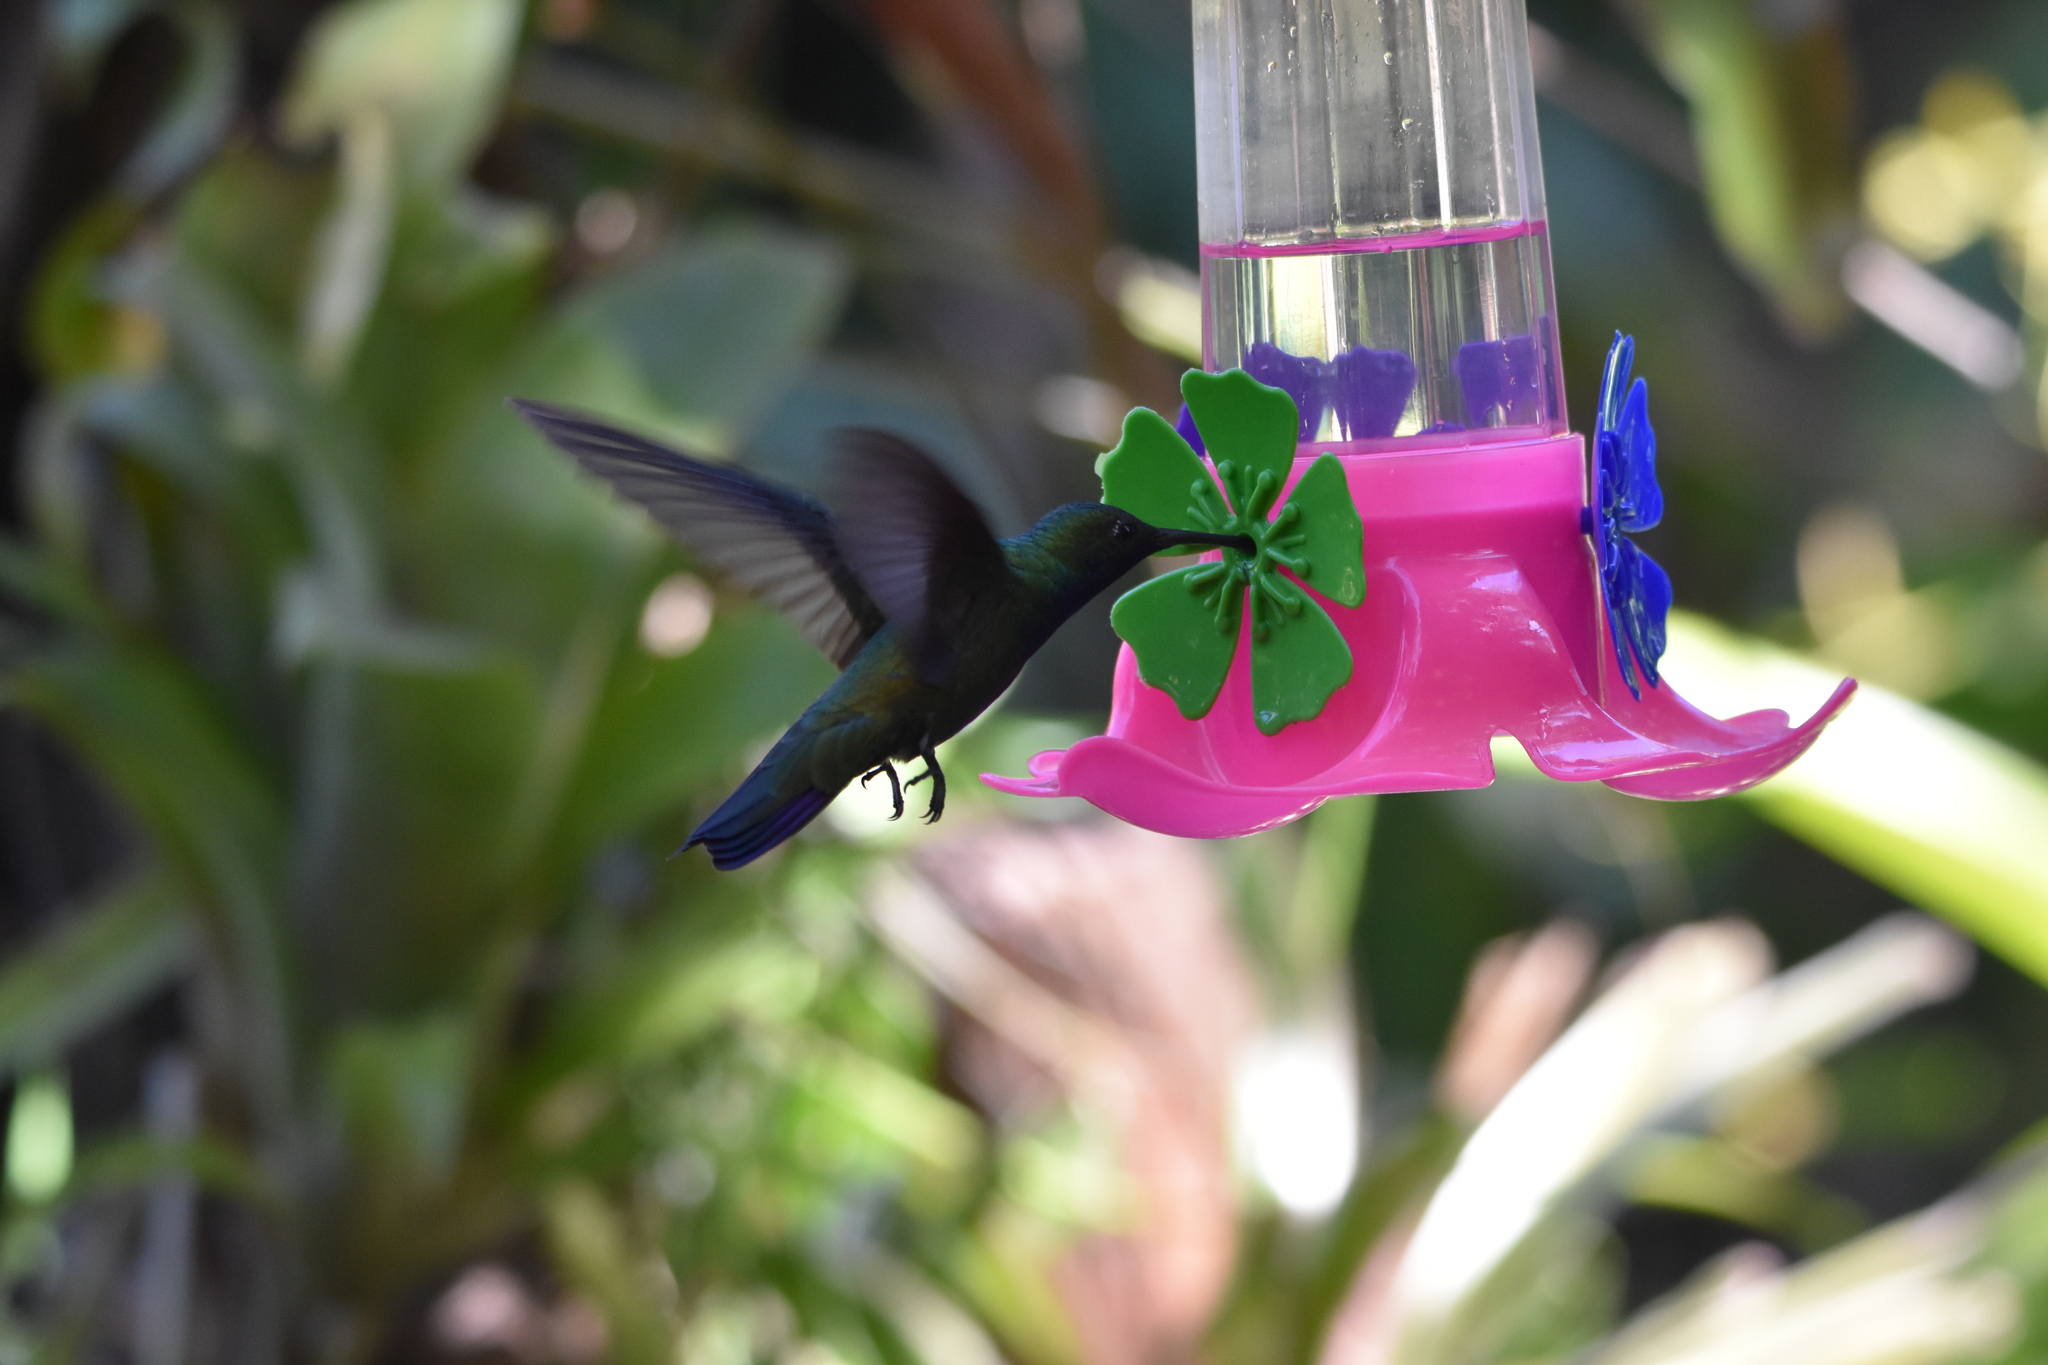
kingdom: Animalia
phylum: Chordata
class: Aves
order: Apodiformes
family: Trochilidae
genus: Anthracothorax
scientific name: Anthracothorax nigricollis
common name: Black-throated mango
